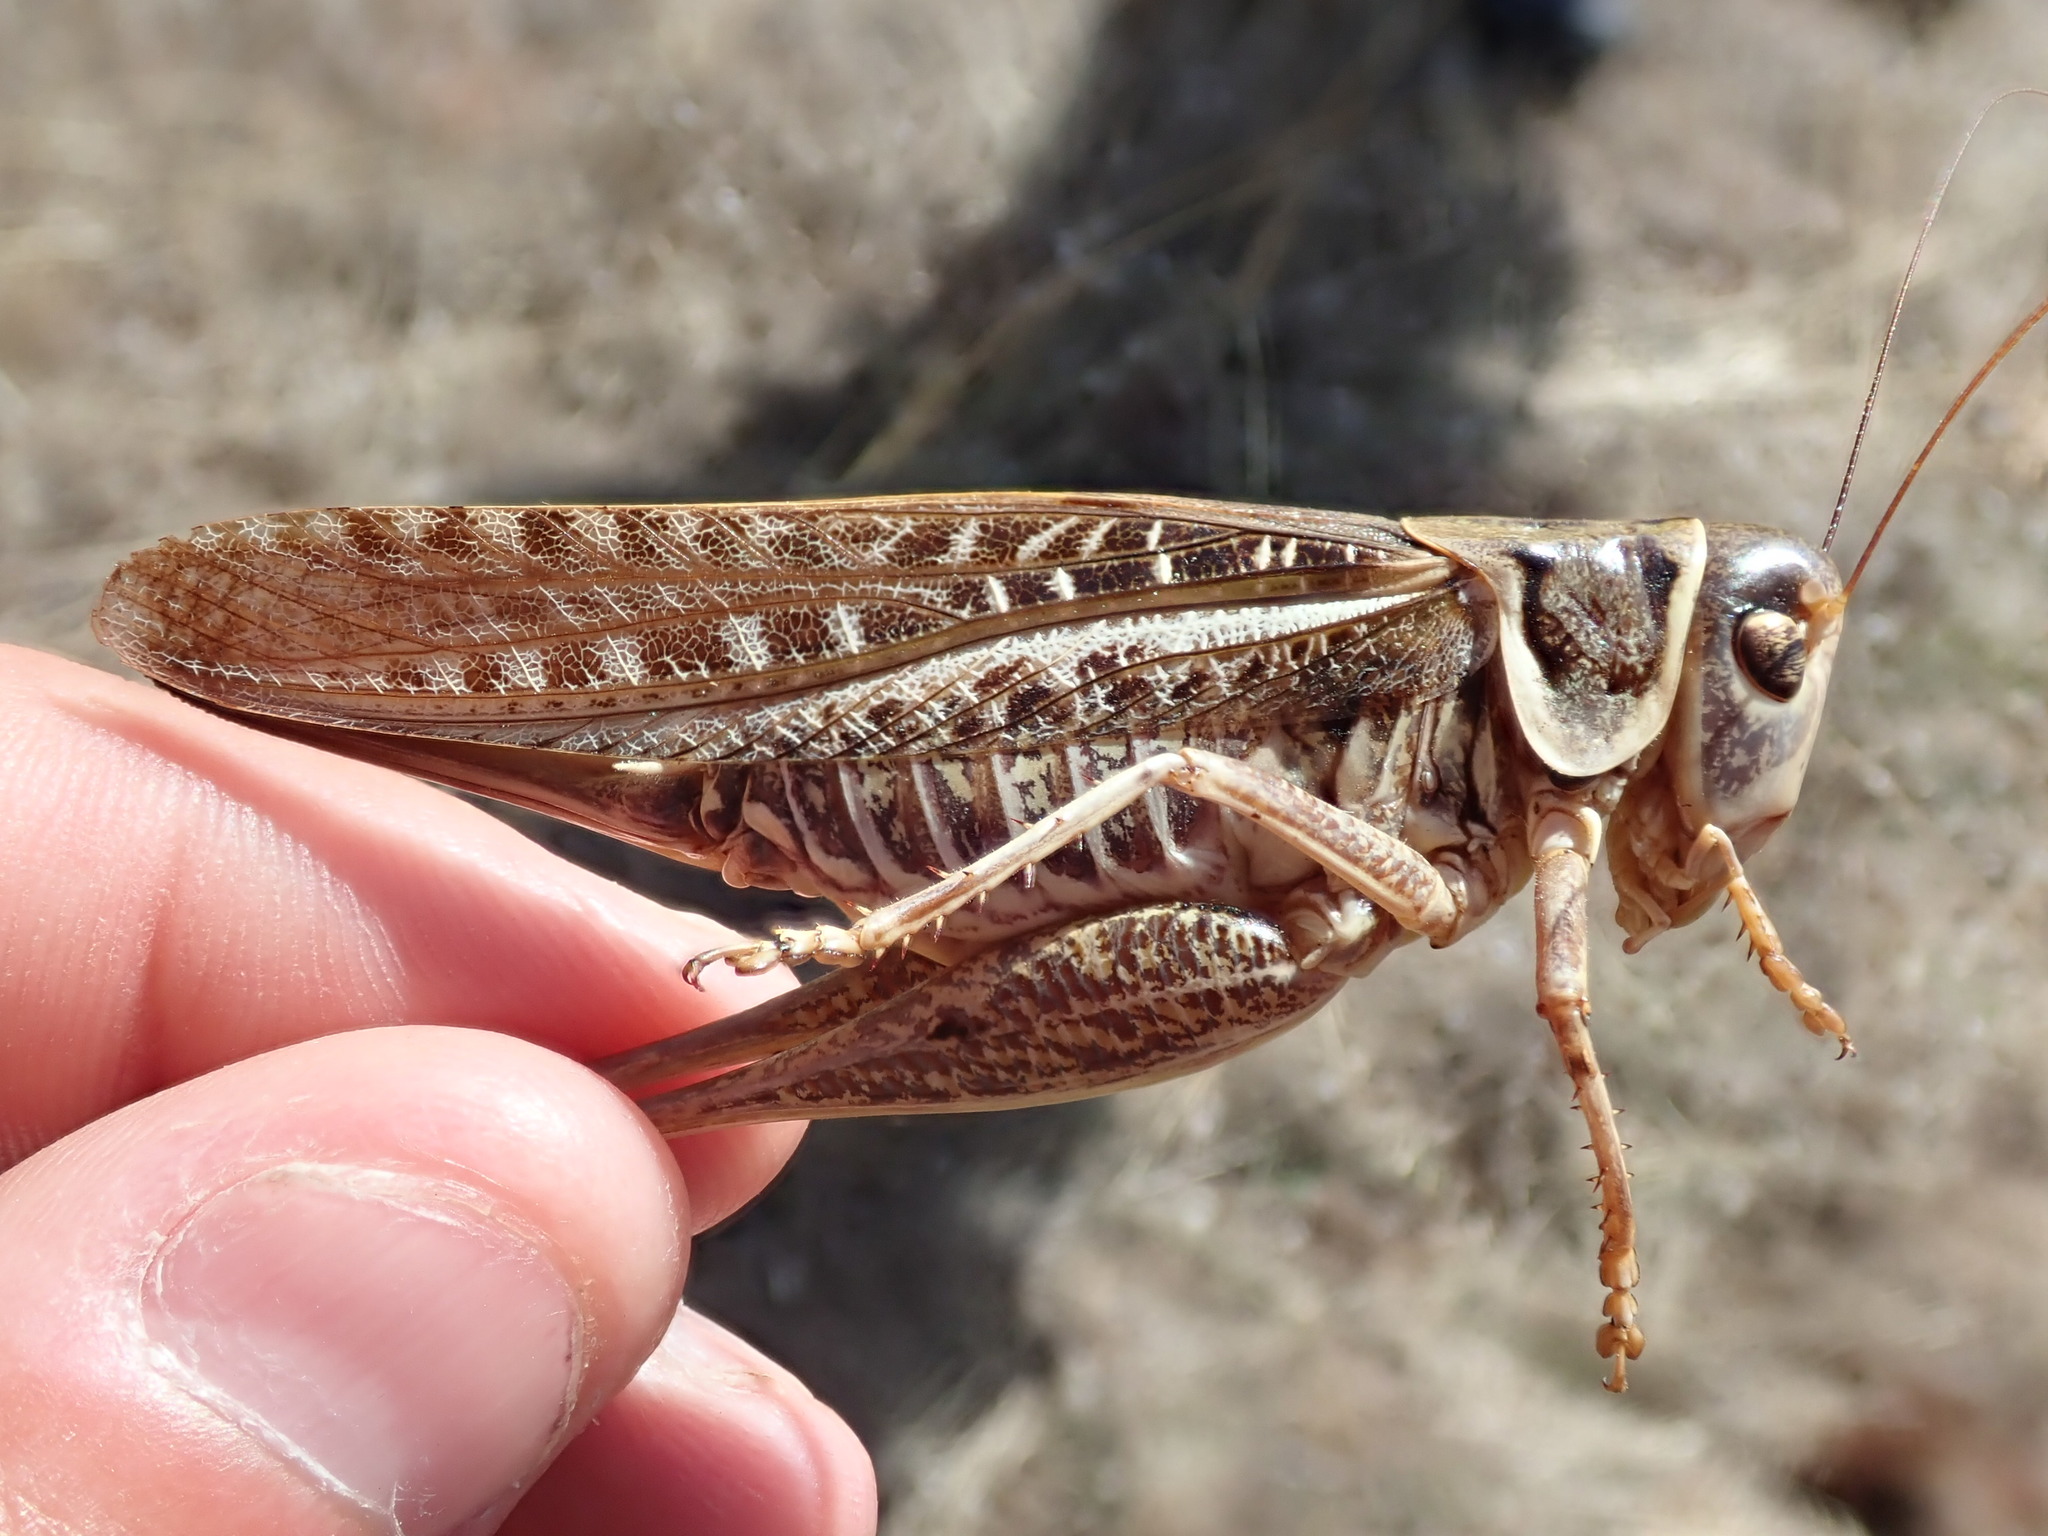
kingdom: Animalia
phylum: Arthropoda
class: Insecta
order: Orthoptera
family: Tettigoniidae
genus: Decticus
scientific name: Decticus albifrons
